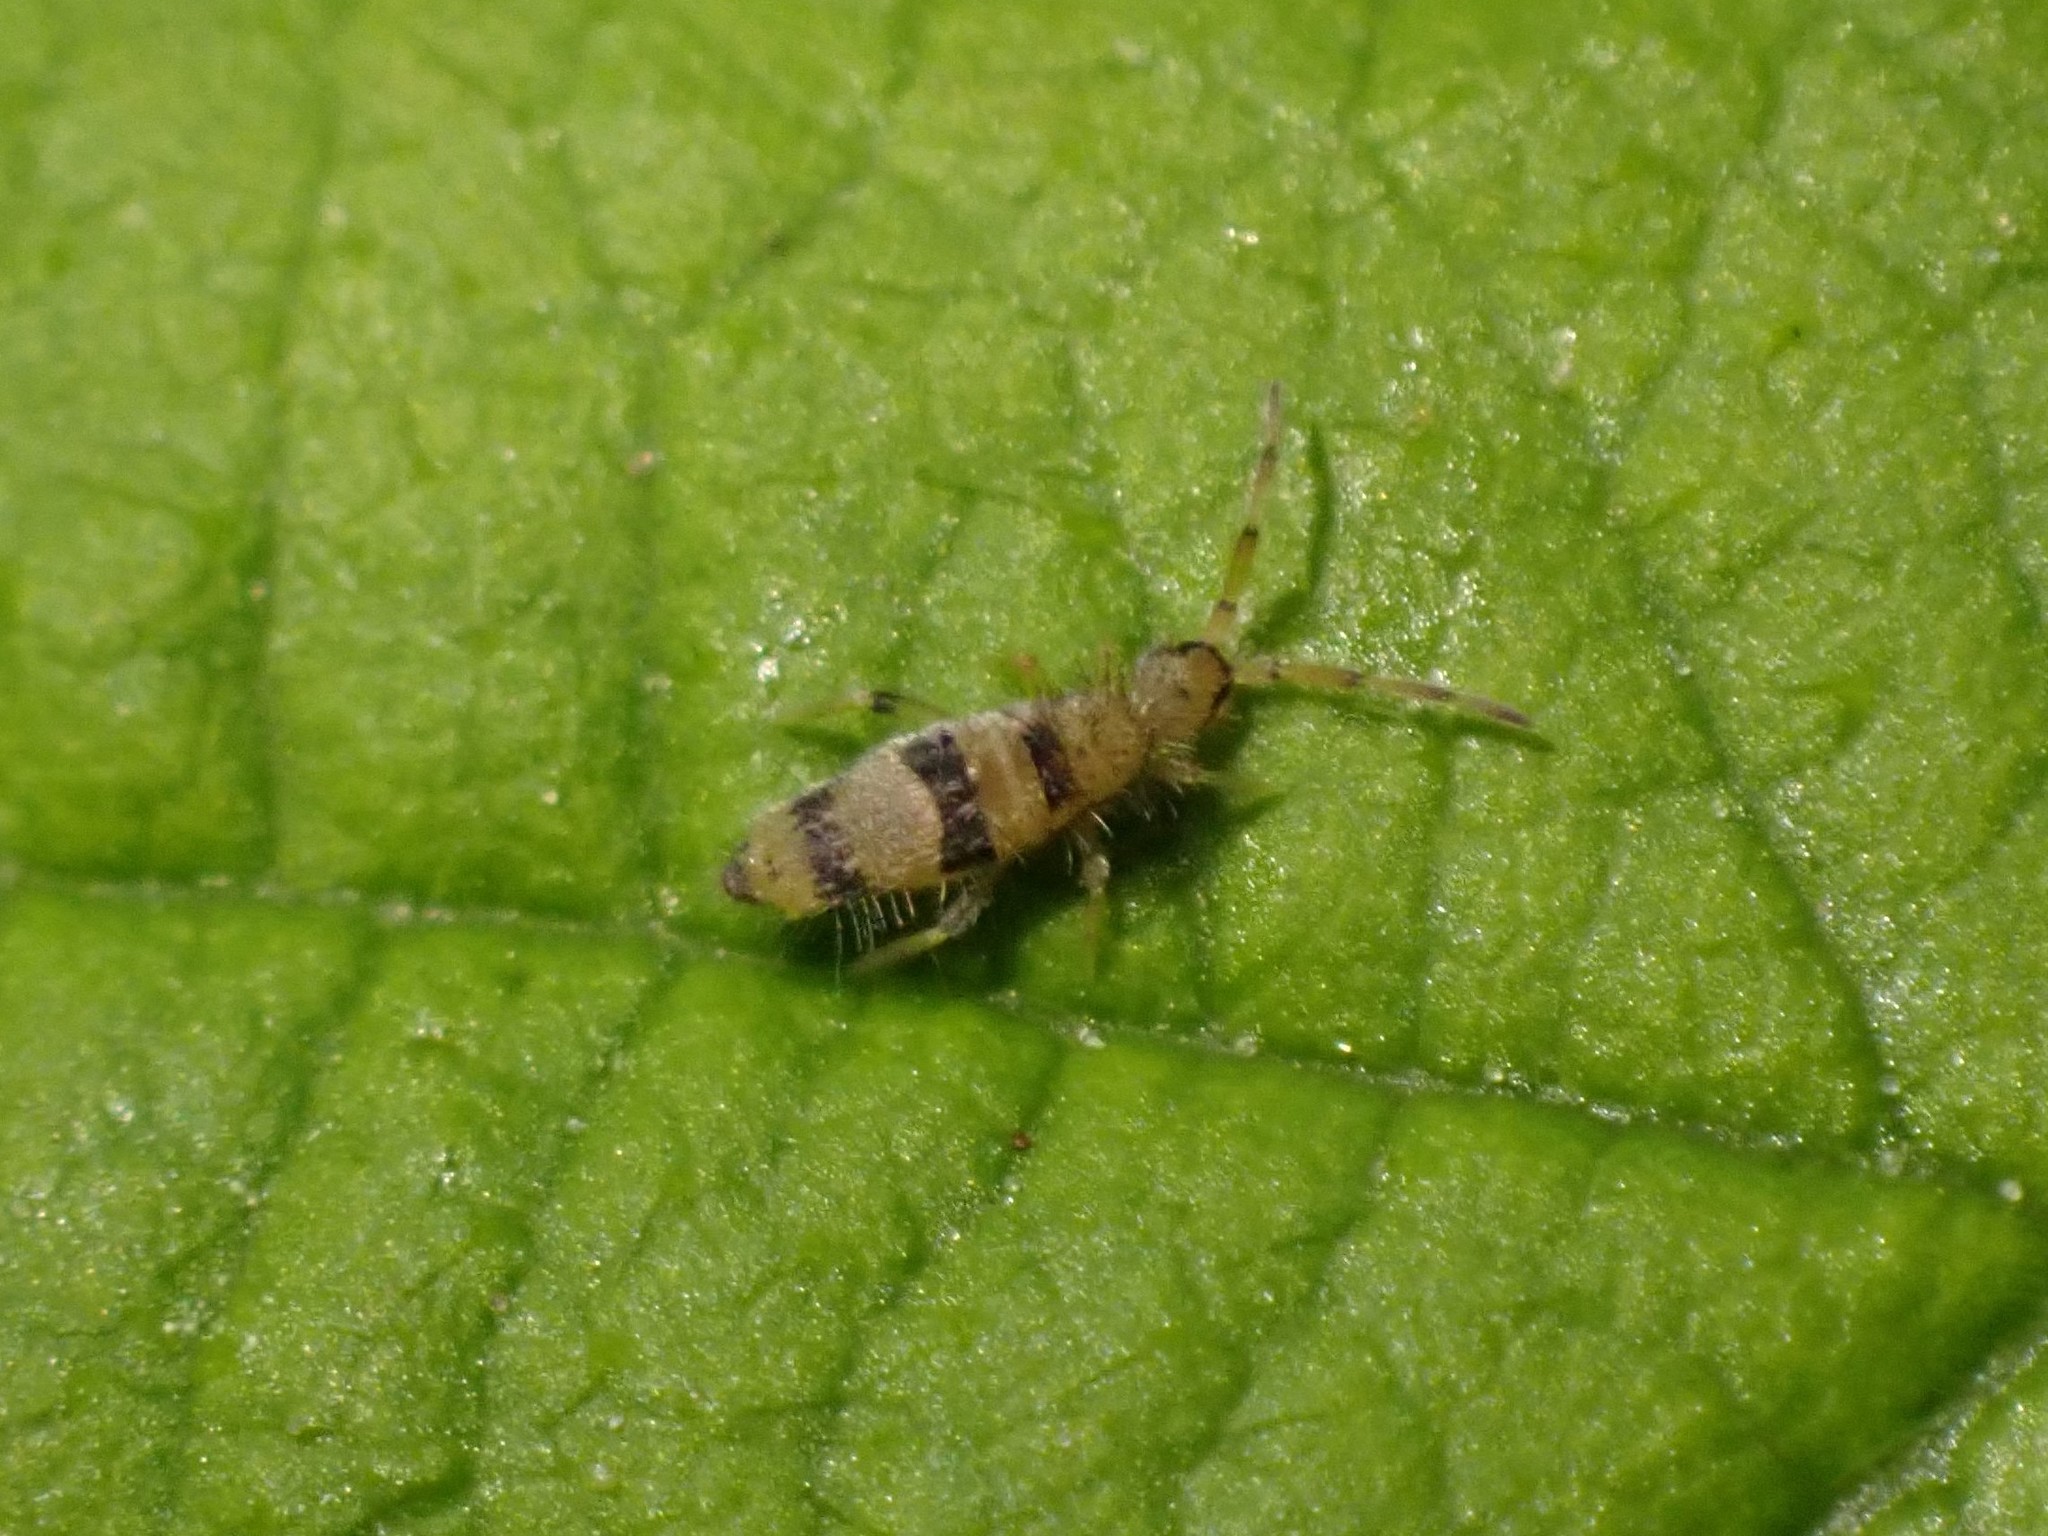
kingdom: Animalia
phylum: Arthropoda
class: Collembola
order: Entomobryomorpha
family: Entomobryidae
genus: Entomobrya
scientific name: Entomobrya triangularis
